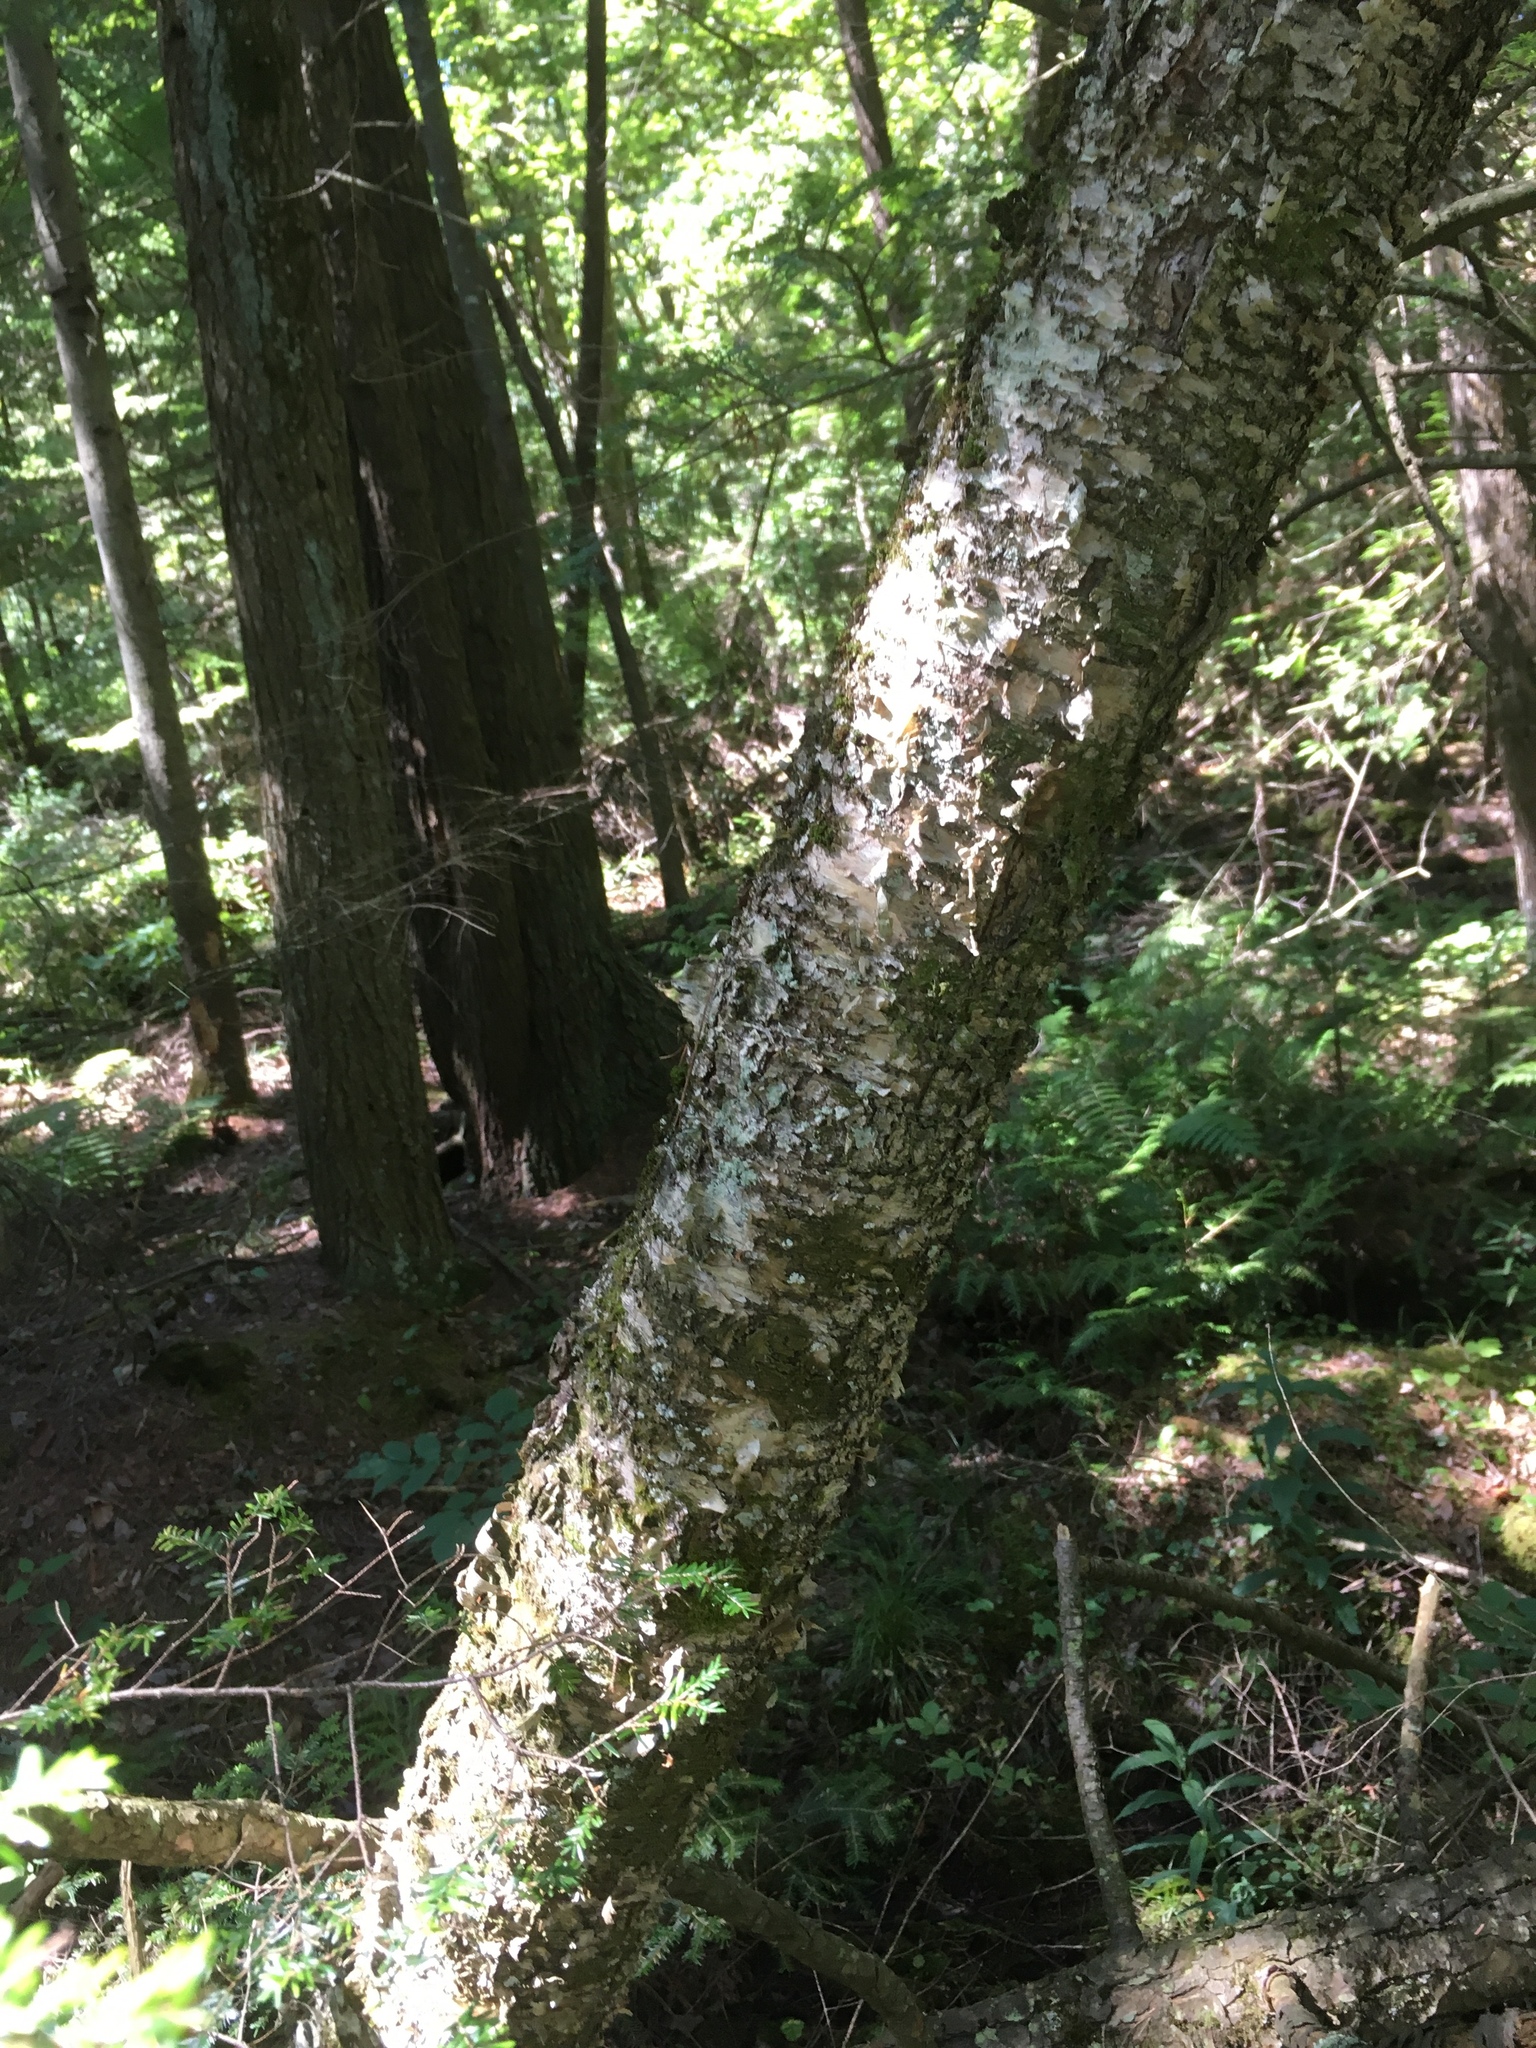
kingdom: Plantae
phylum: Tracheophyta
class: Magnoliopsida
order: Fagales
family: Betulaceae
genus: Betula
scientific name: Betula alleghaniensis
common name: Yellow birch
